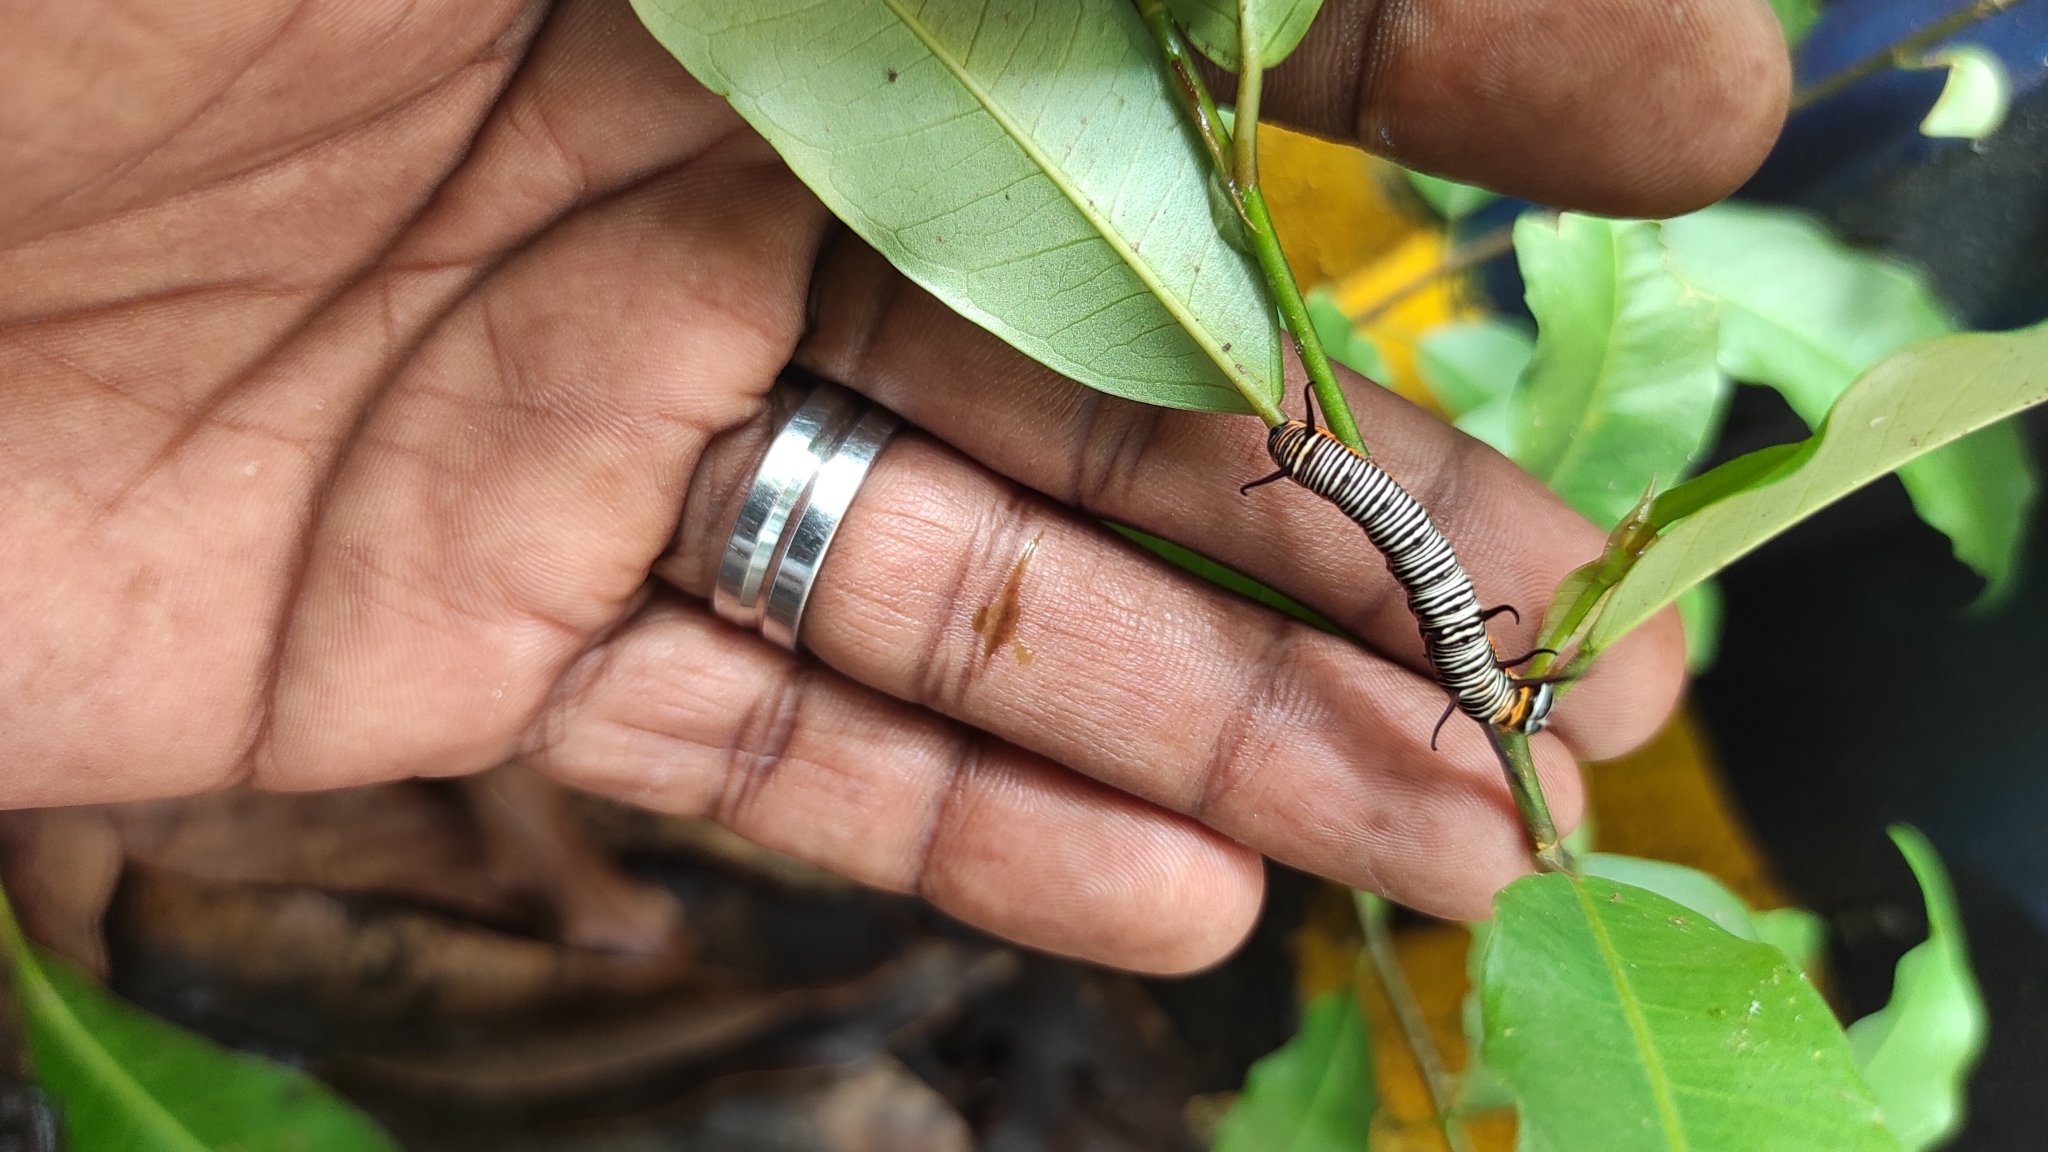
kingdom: Animalia
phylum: Arthropoda
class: Insecta
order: Lepidoptera
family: Nymphalidae
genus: Euploea
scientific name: Euploea core
